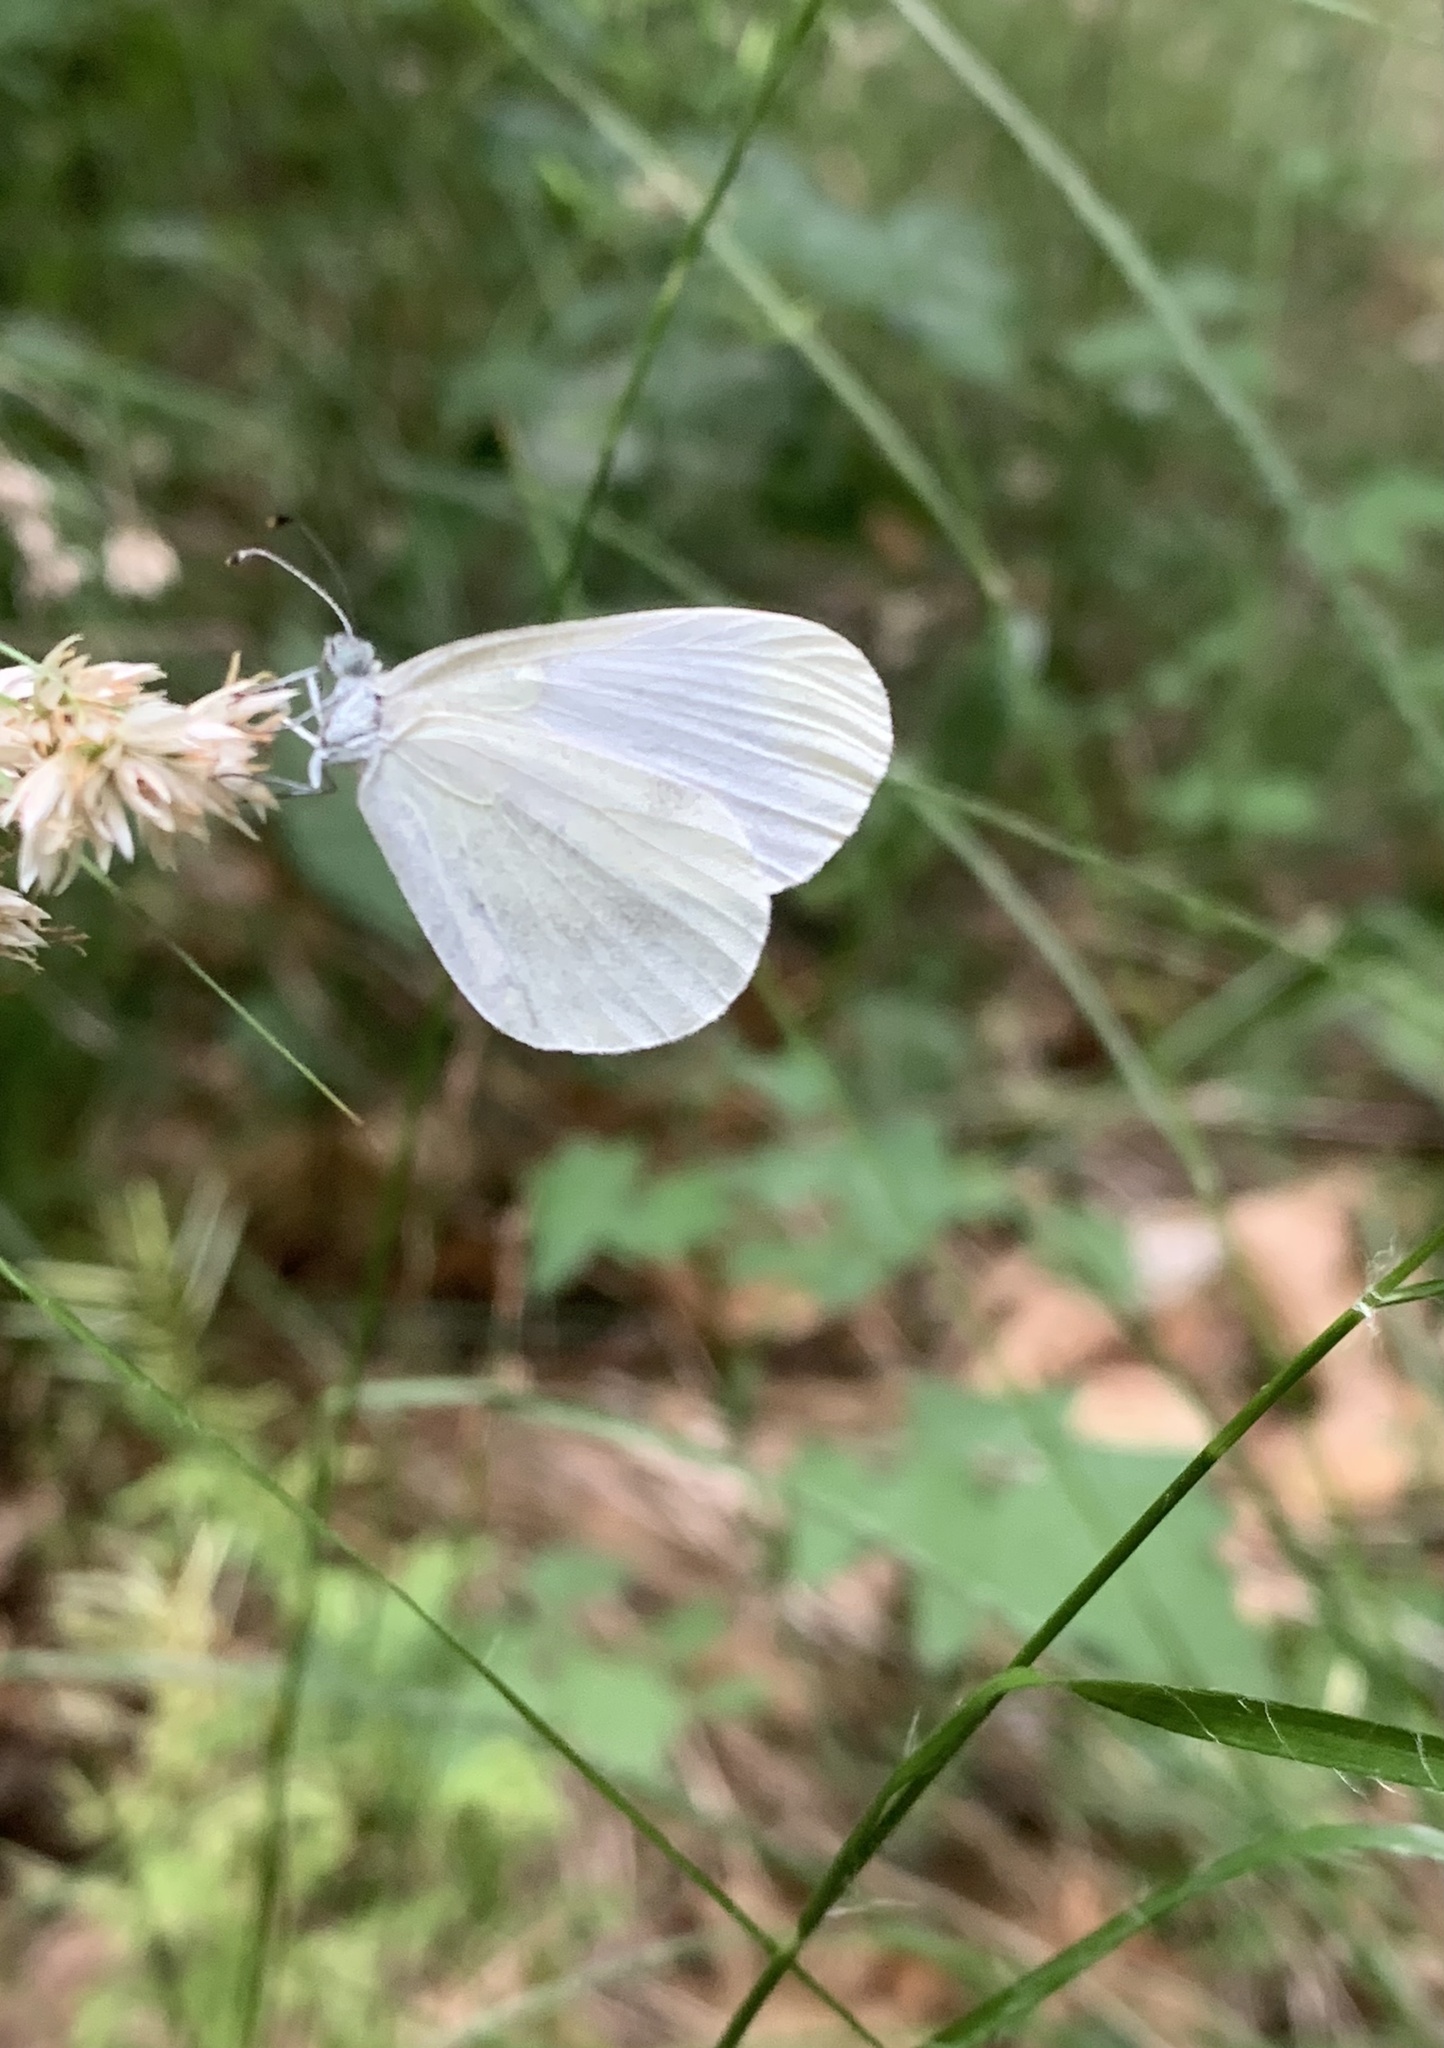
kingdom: Animalia
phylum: Arthropoda
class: Insecta
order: Lepidoptera
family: Pieridae
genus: Leptidea
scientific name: Leptidea sinapis
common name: Wood white
